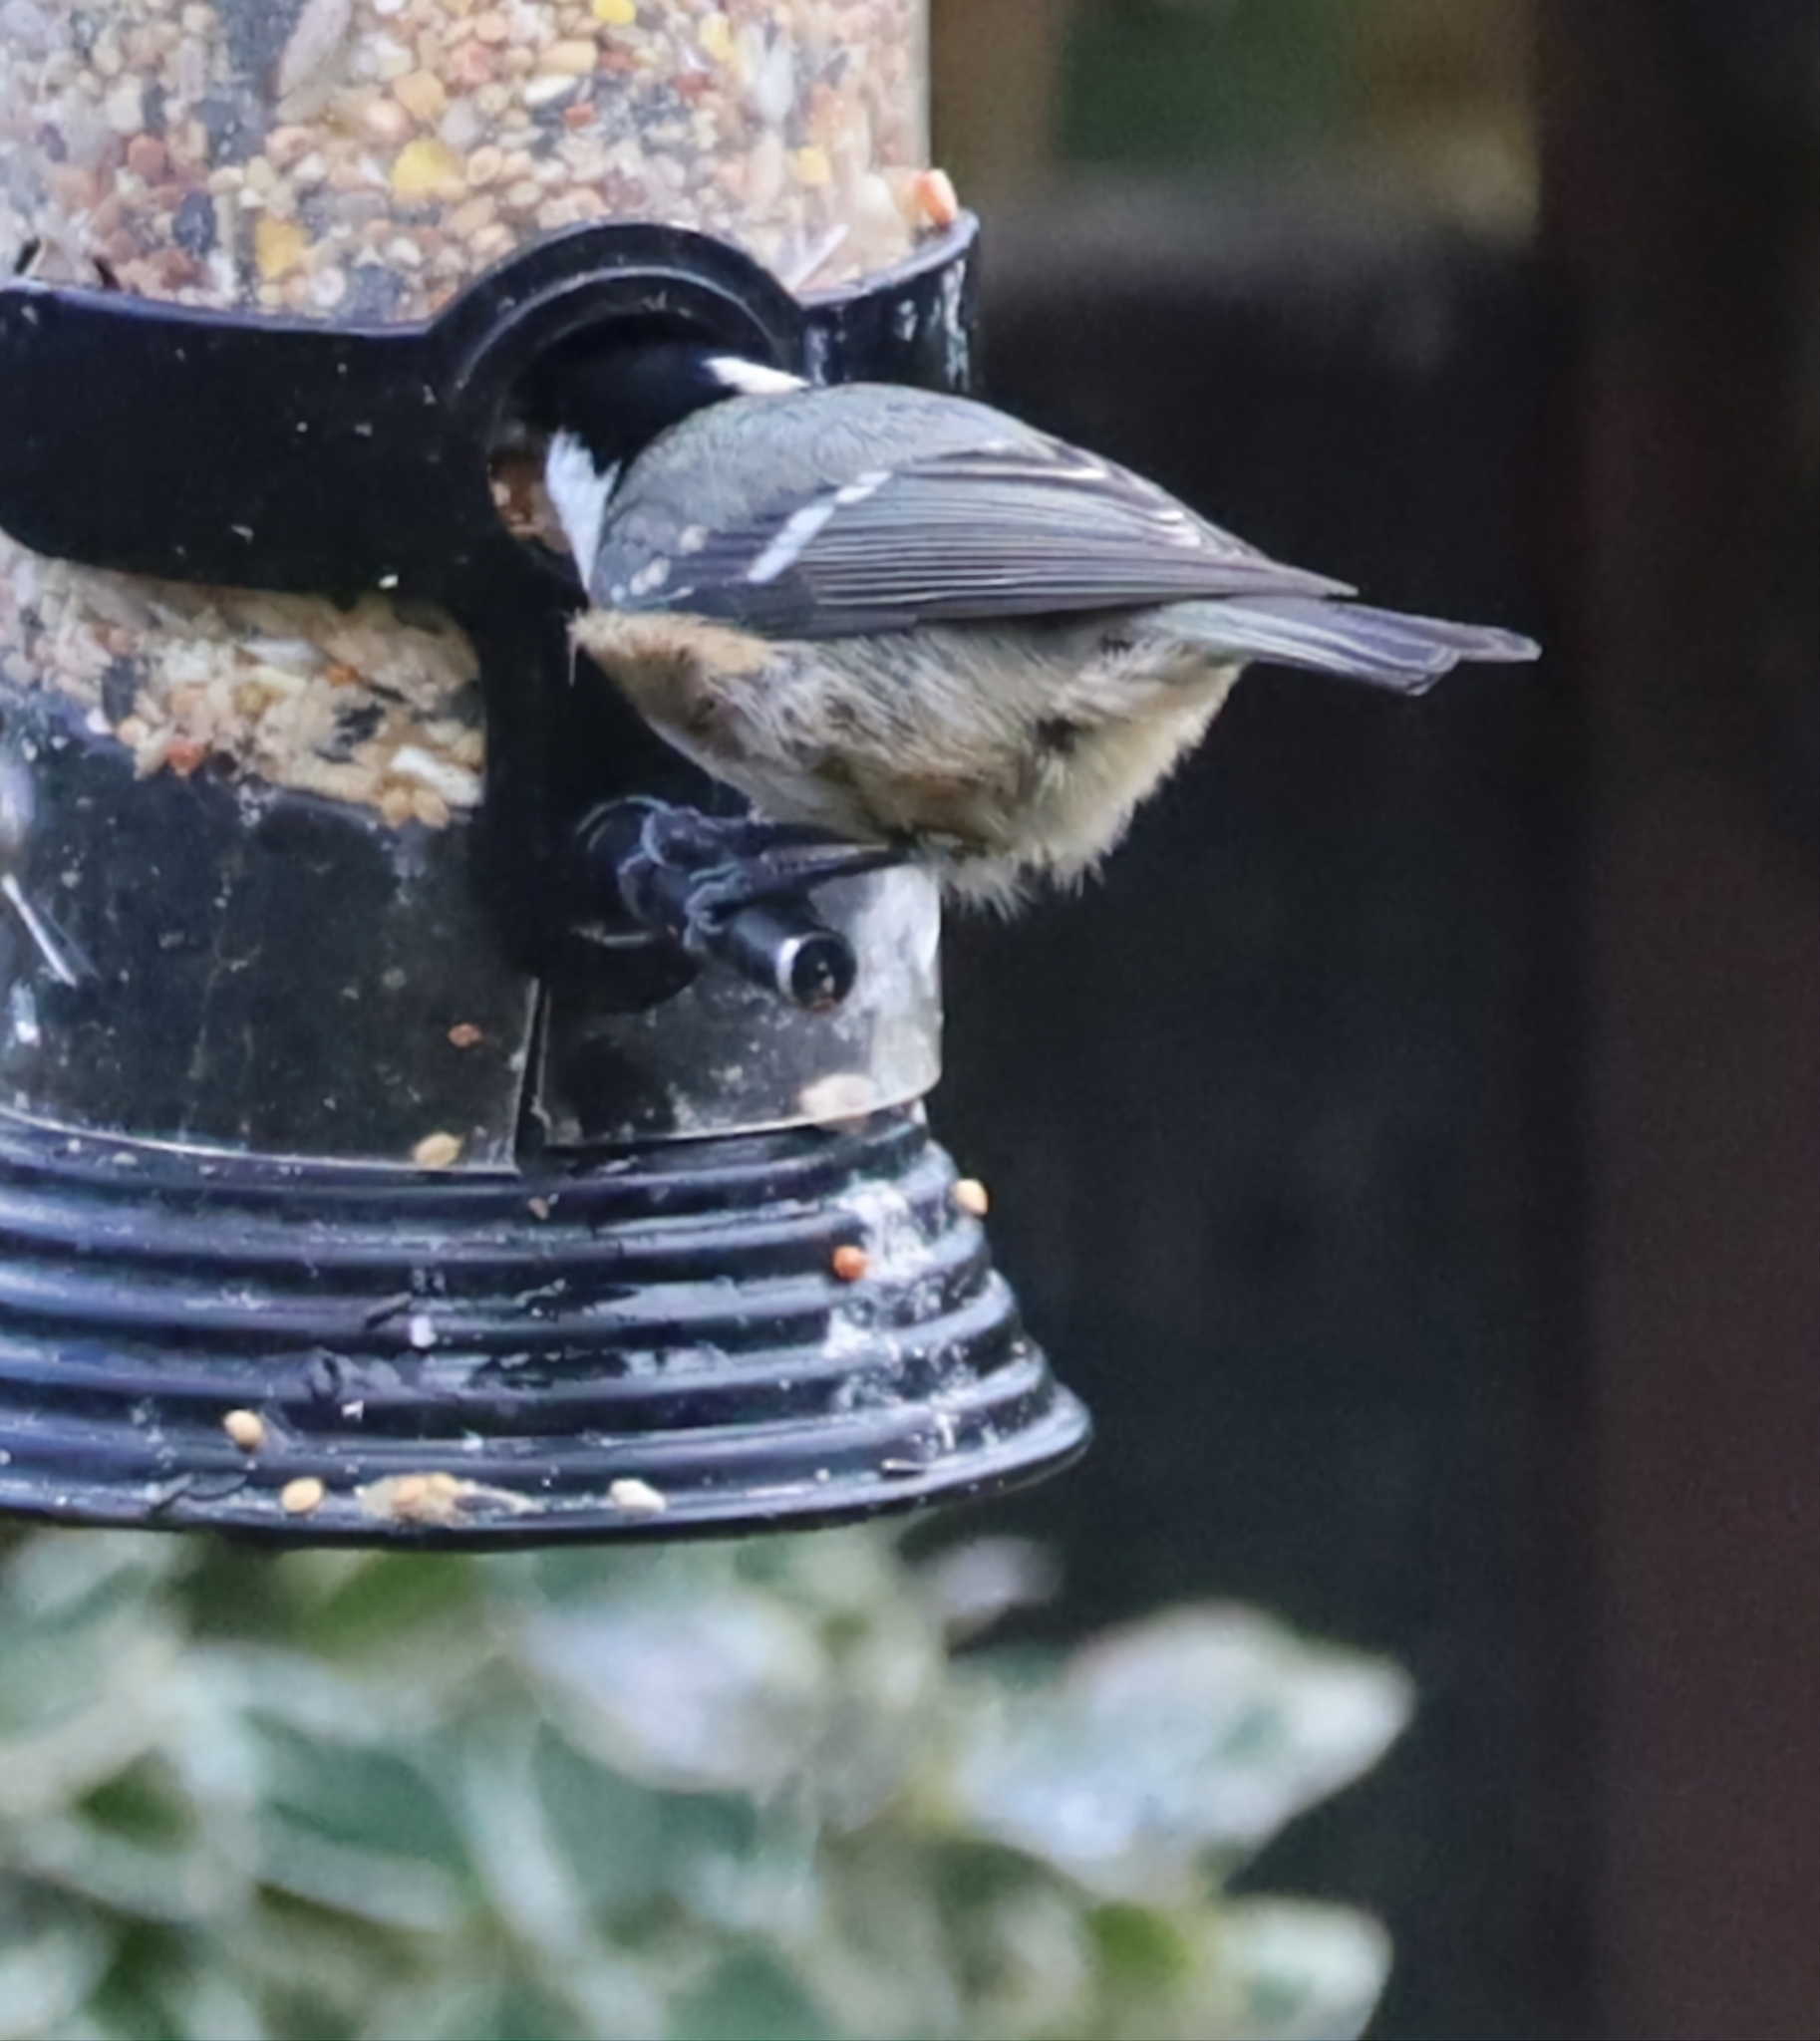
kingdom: Animalia
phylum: Chordata
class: Aves
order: Passeriformes
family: Paridae
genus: Periparus
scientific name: Periparus ater
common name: Coal tit
